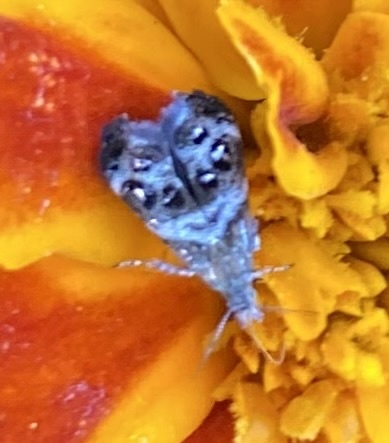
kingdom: Animalia
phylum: Arthropoda
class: Insecta
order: Lepidoptera
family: Choreutidae
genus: Tebenna
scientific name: Tebenna micalis
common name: Vagrant twitcher
